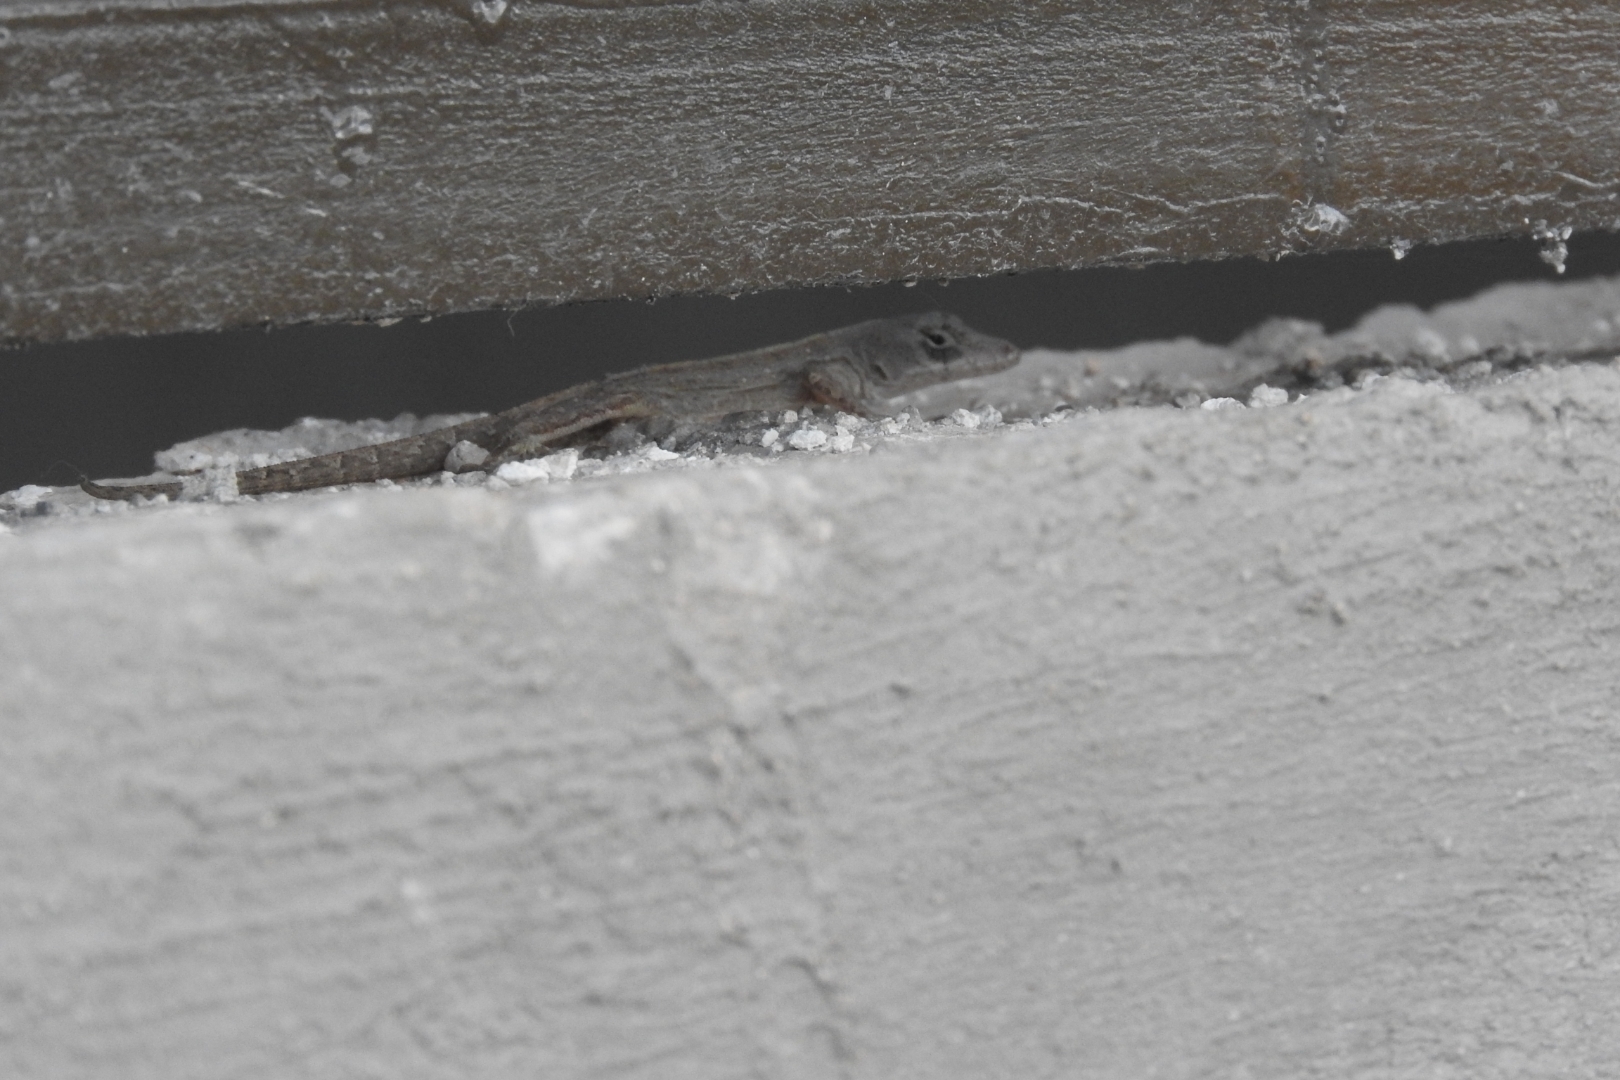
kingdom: Animalia
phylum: Chordata
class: Squamata
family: Dactyloidae
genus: Anolis
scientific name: Anolis sagrei
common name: Brown anole
